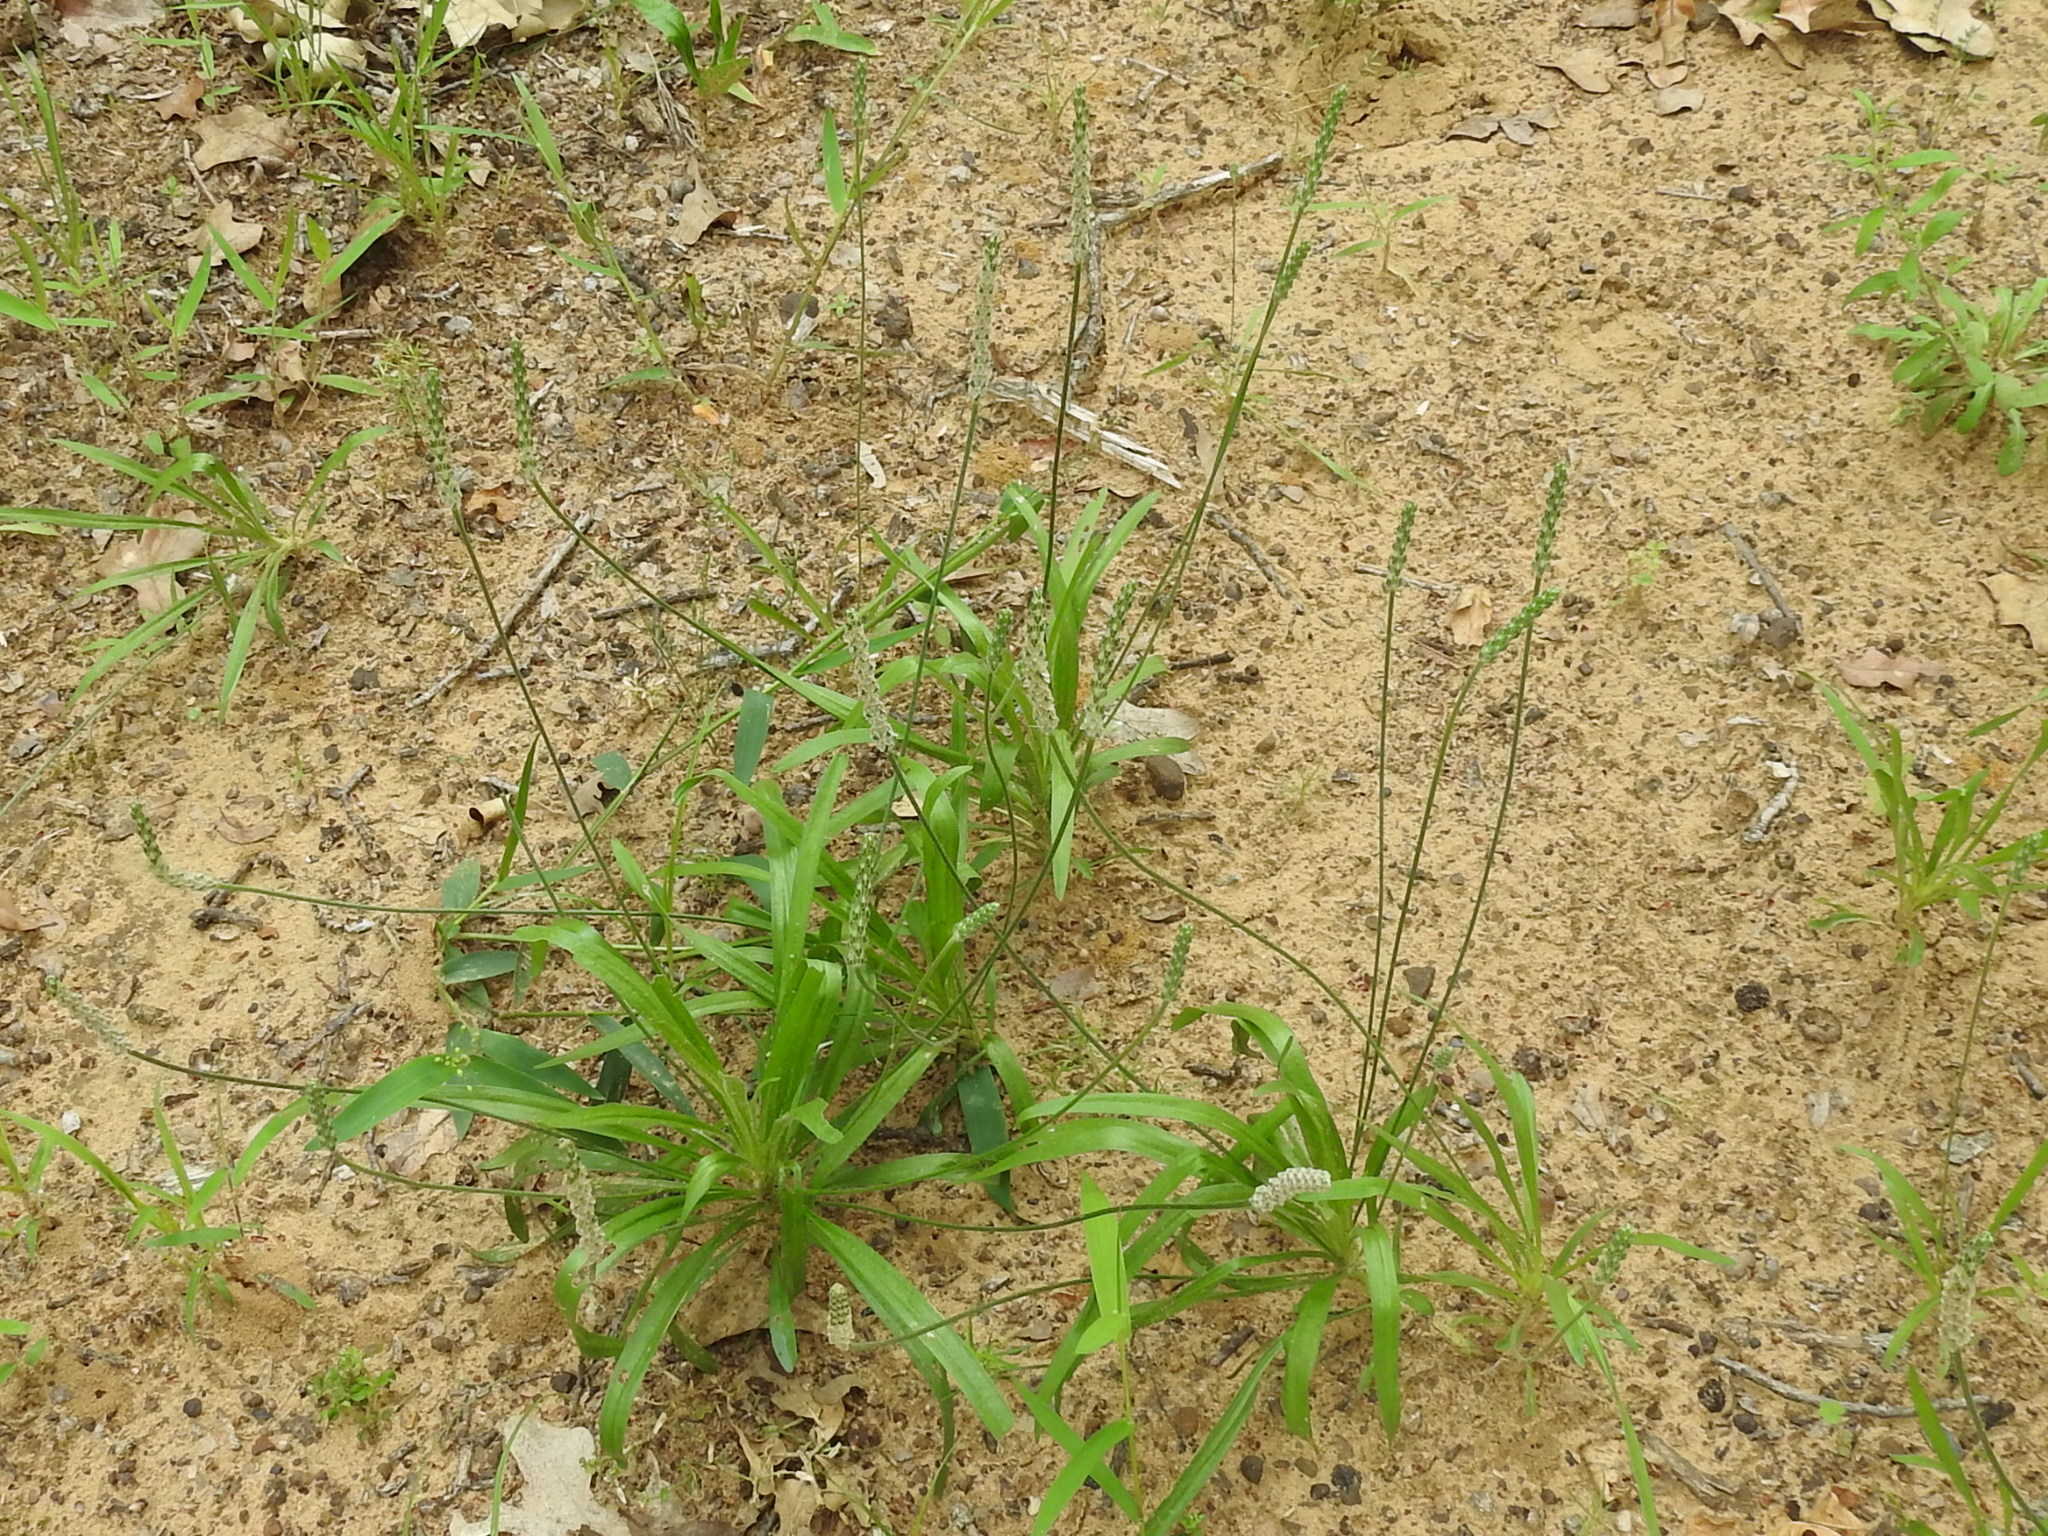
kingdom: Plantae
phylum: Tracheophyta
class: Magnoliopsida
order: Lamiales
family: Plantaginaceae
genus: Plantago
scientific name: Plantago wrightiana
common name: Wright's plantain
